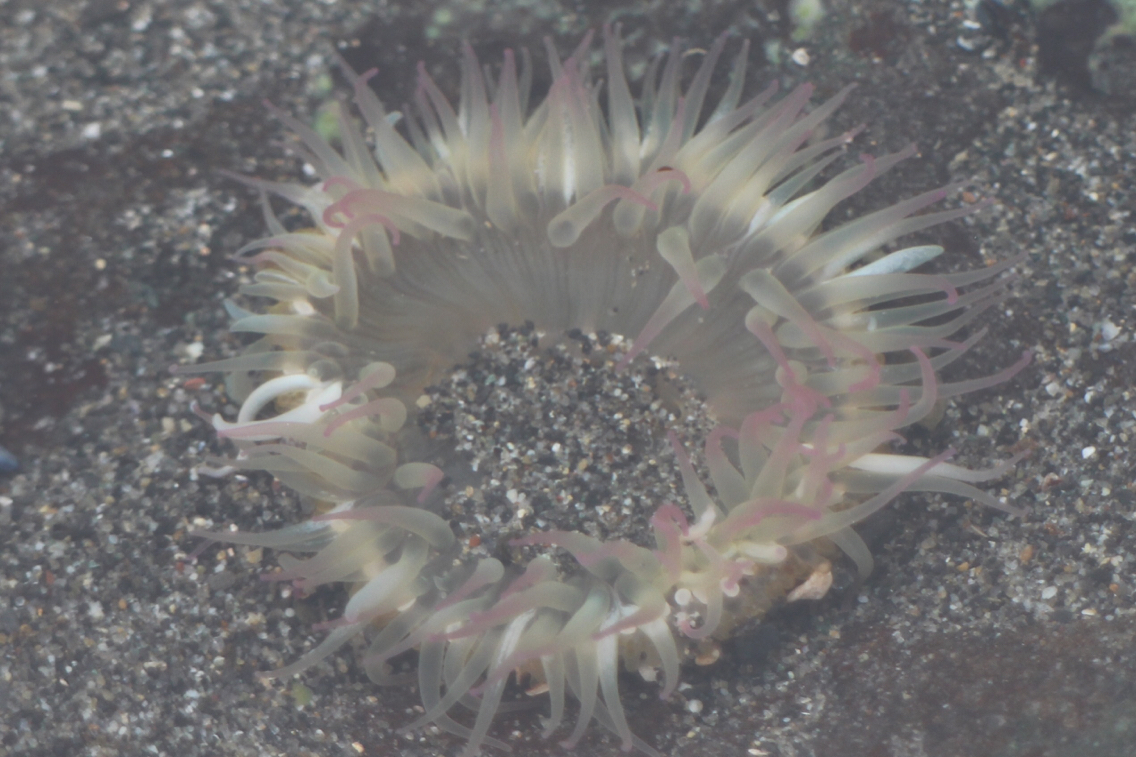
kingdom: Animalia
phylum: Cnidaria
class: Anthozoa
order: Actiniaria
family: Actiniidae
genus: Anthopleura
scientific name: Anthopleura elegantissima
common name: Clonal anemone
